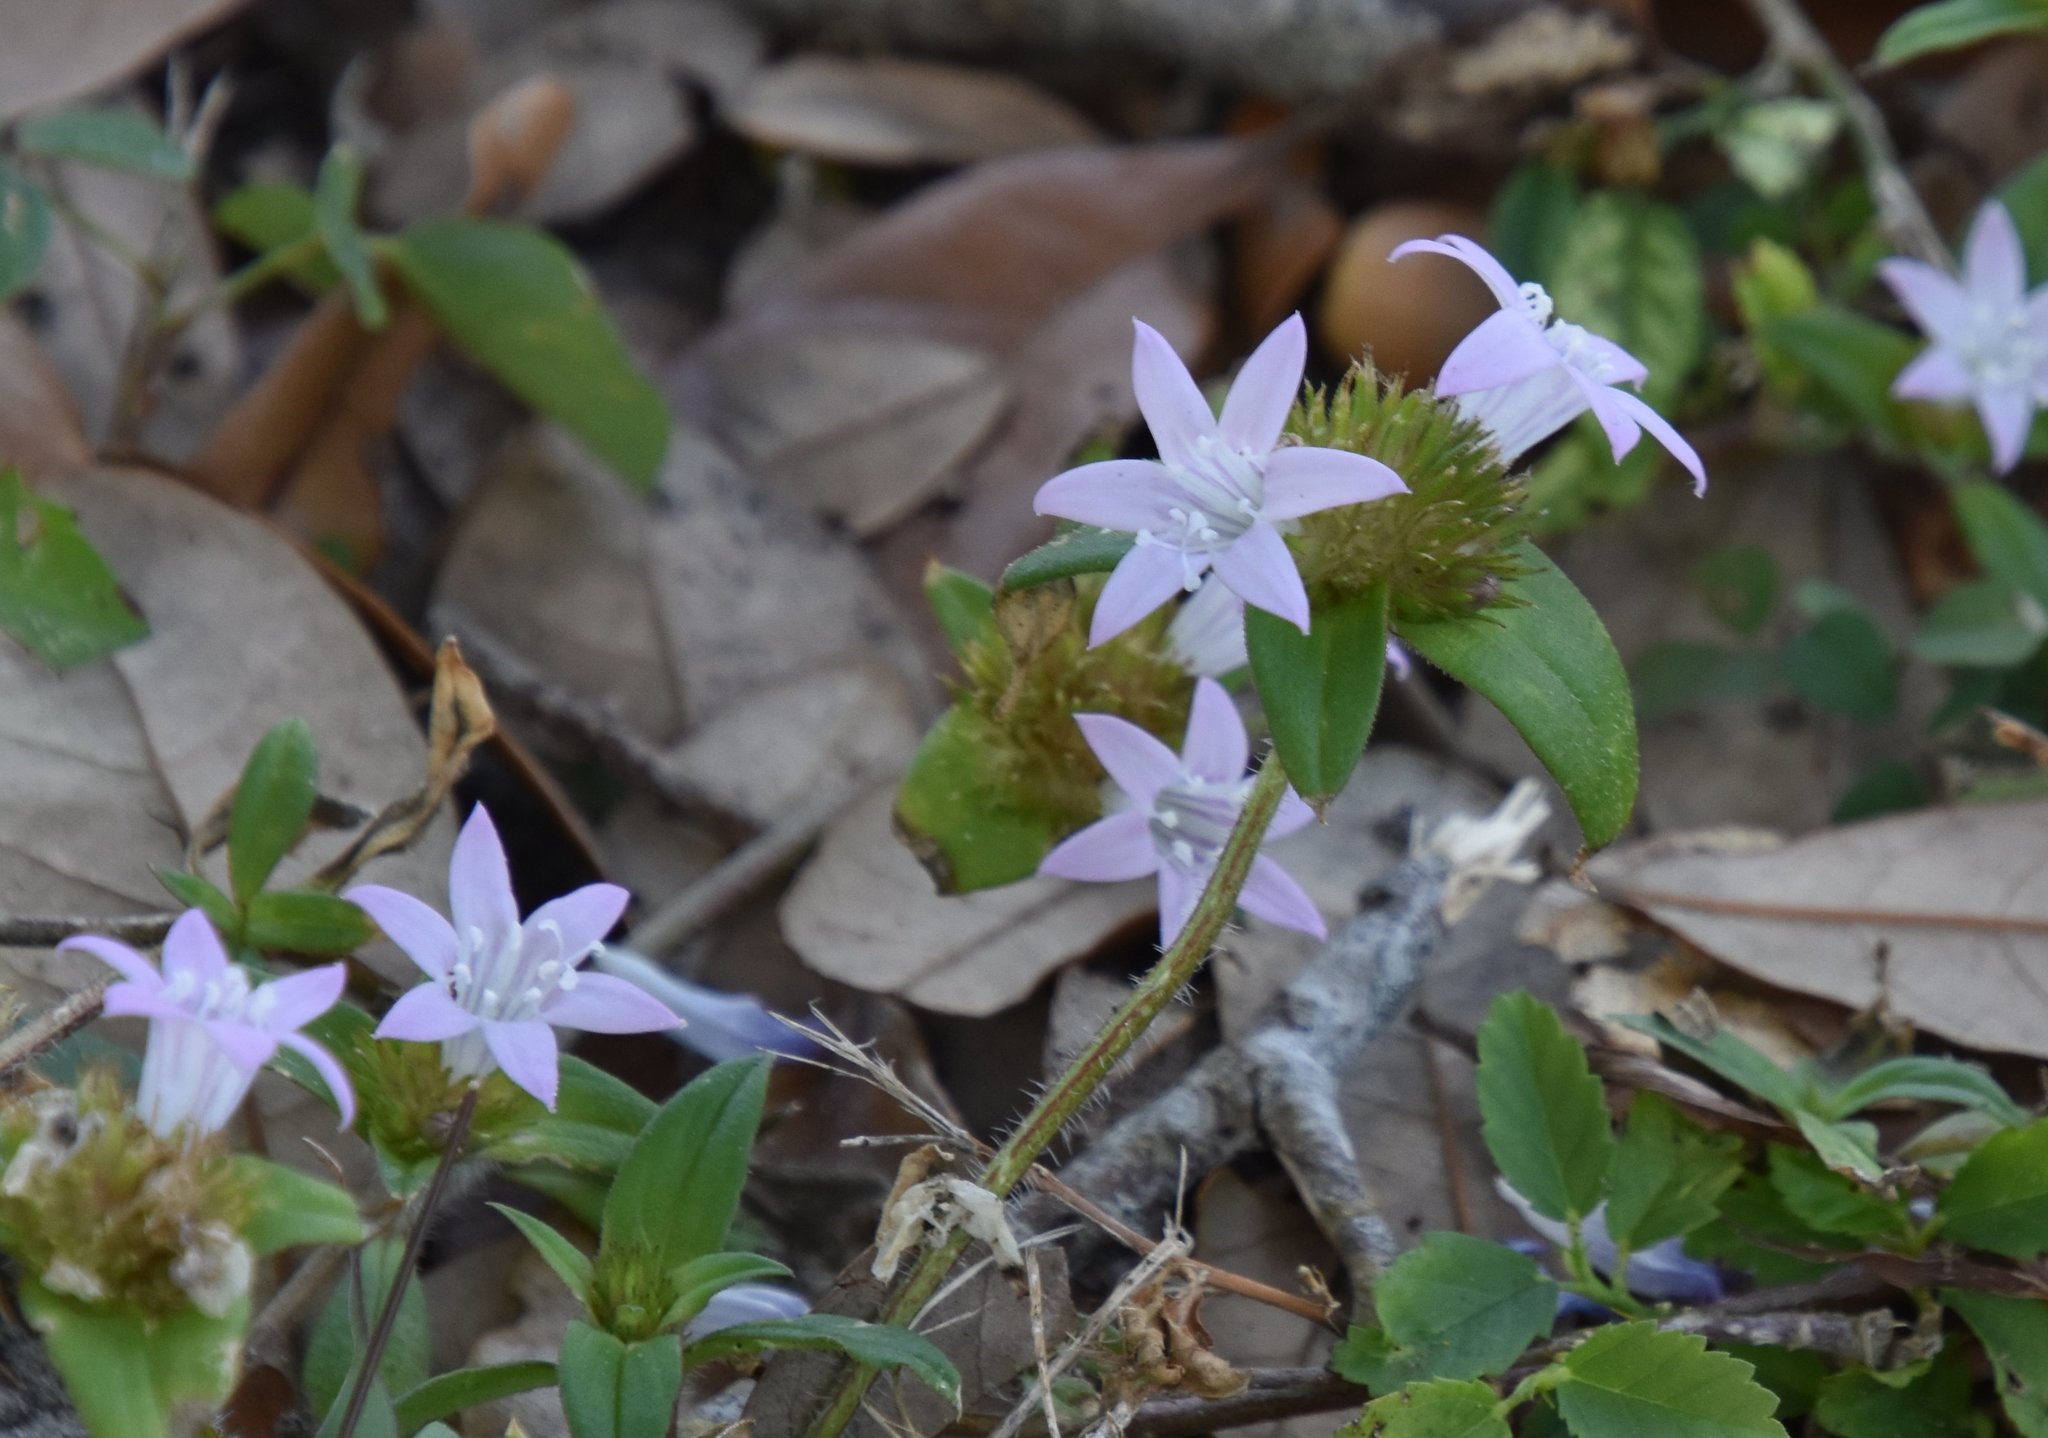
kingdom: Plantae
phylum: Tracheophyta
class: Magnoliopsida
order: Gentianales
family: Rubiaceae
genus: Richardia
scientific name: Richardia grandiflora
